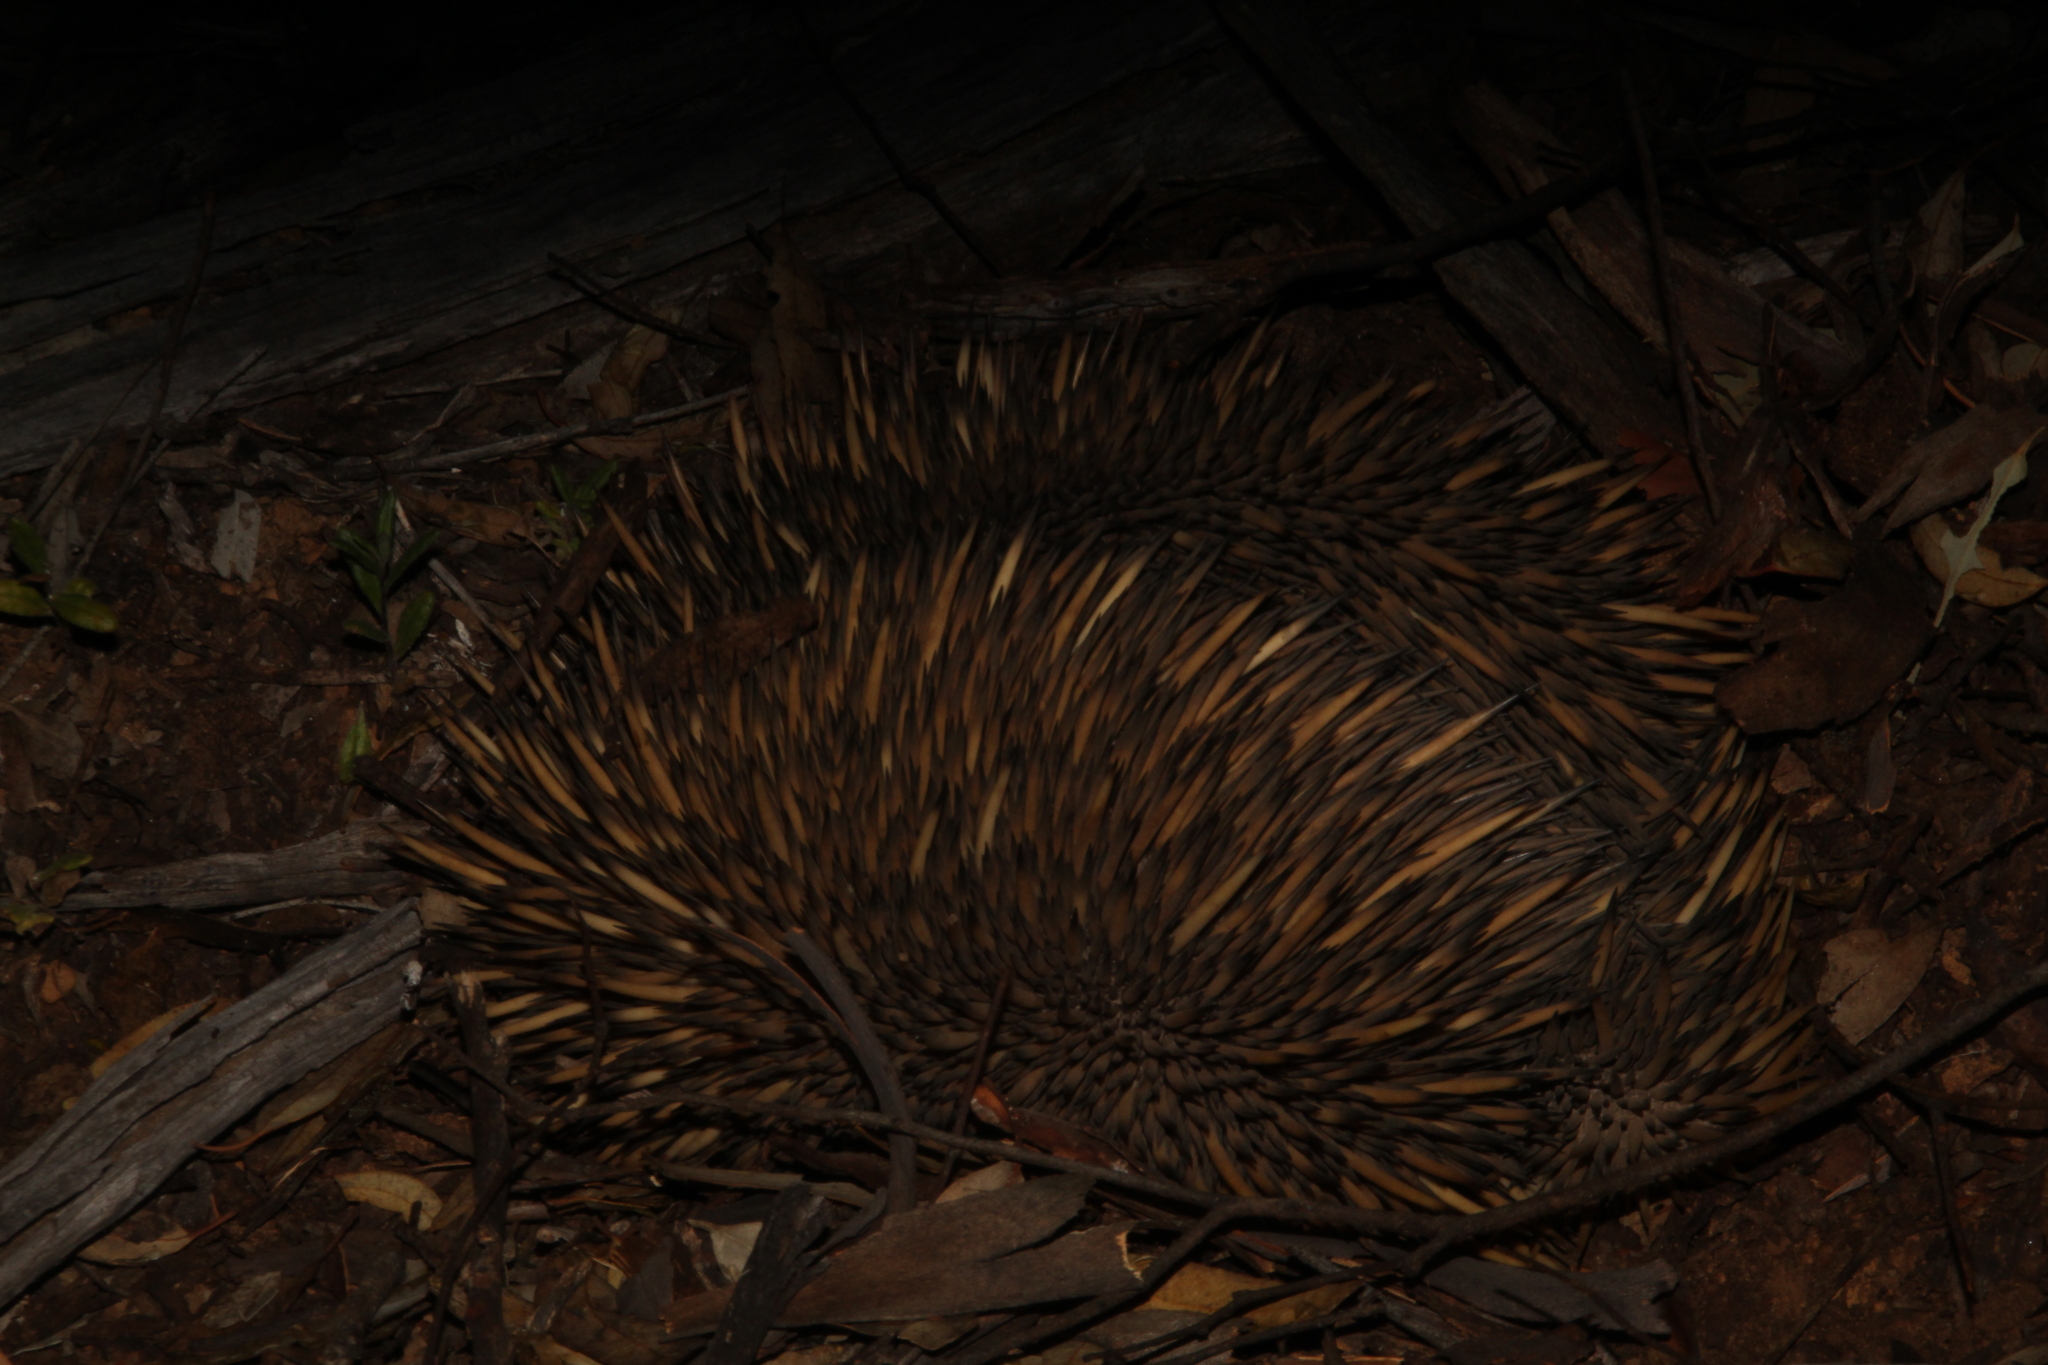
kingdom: Animalia
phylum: Chordata
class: Mammalia
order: Monotremata
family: Tachyglossidae
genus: Tachyglossus
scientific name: Tachyglossus aculeatus
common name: Short-beaked echidna
